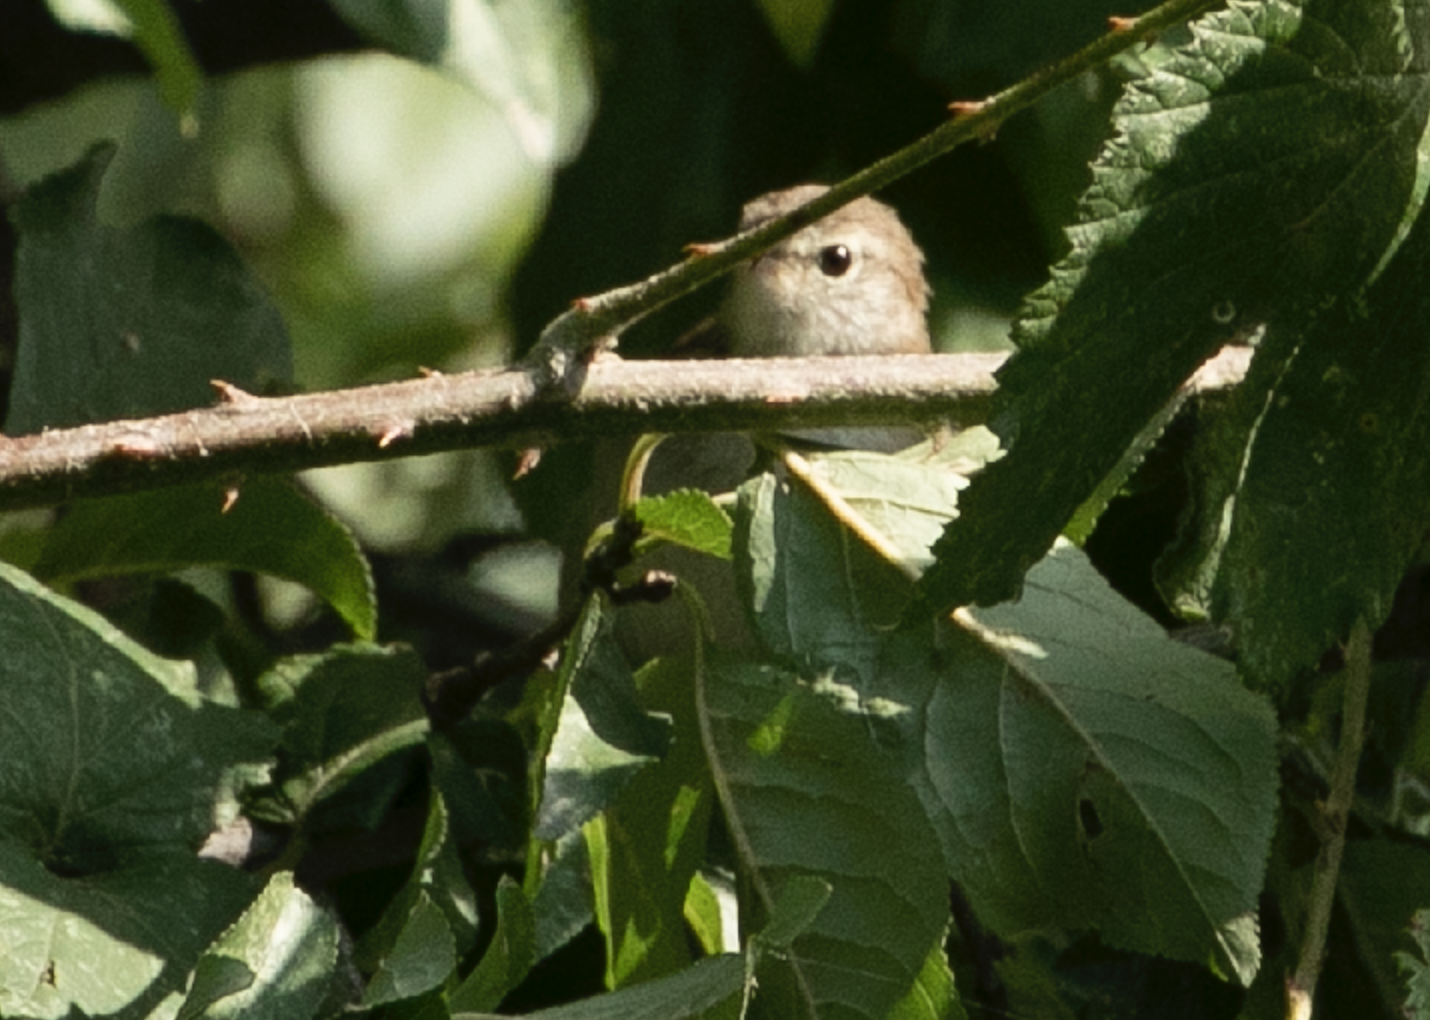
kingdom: Animalia
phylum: Chordata
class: Aves
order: Passeriformes
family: Cettiidae
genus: Cettia
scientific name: Cettia cetti
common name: Cetti's warbler
